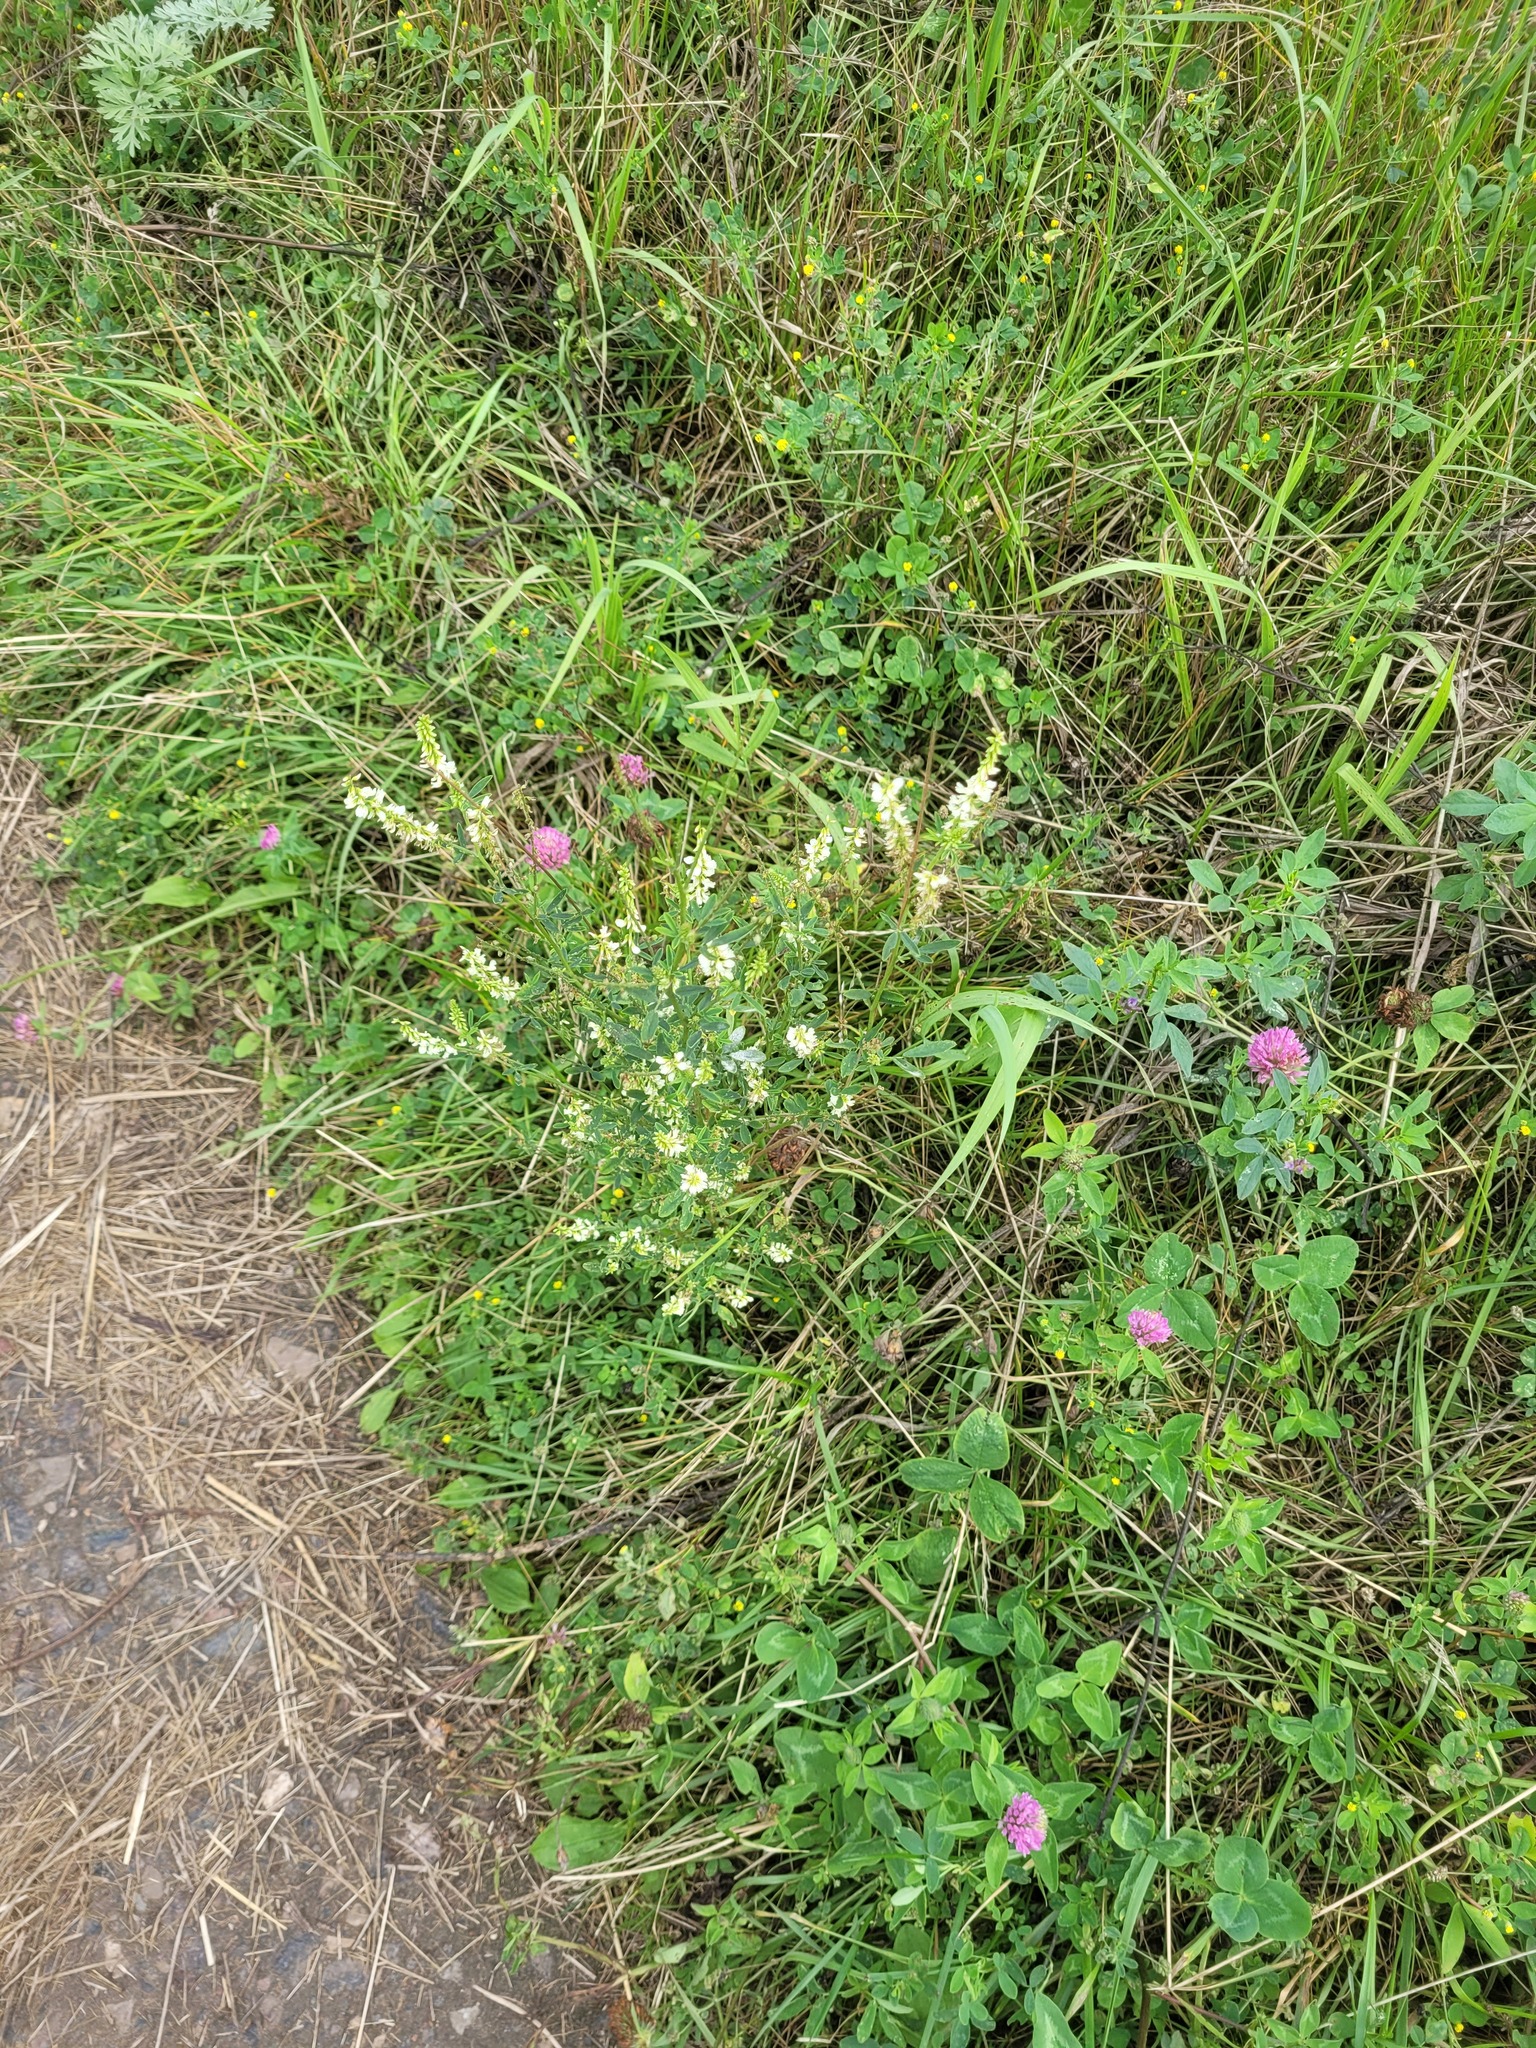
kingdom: Plantae
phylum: Tracheophyta
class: Magnoliopsida
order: Fabales
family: Fabaceae
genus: Melilotus
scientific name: Melilotus albus
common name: White melilot
